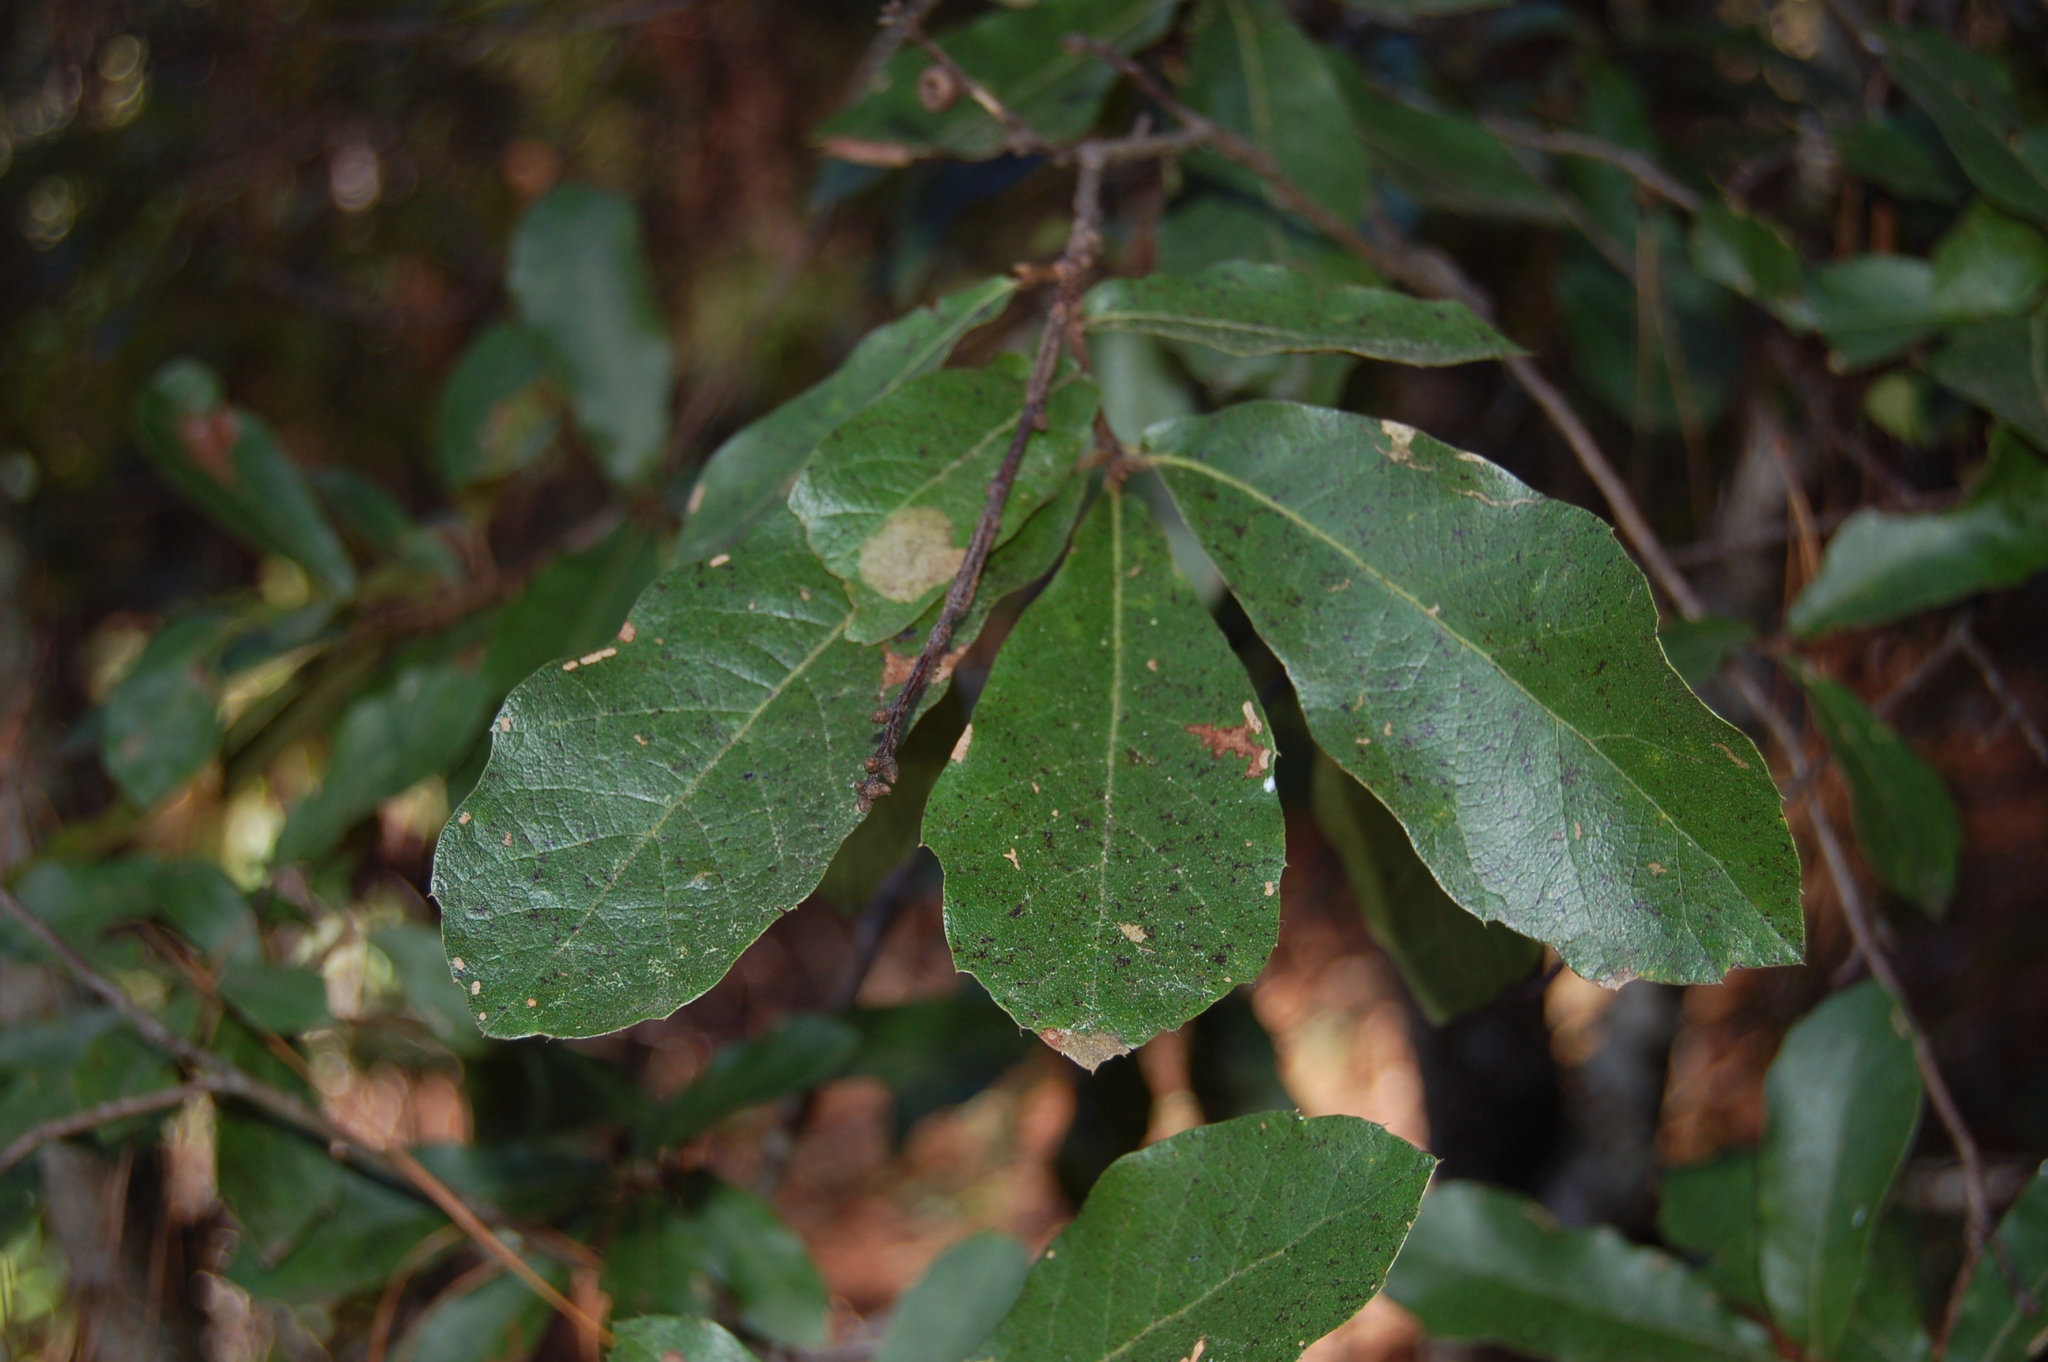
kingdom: Plantae
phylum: Tracheophyta
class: Magnoliopsida
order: Fagales
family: Fagaceae
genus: Quercus
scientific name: Quercus castanea
